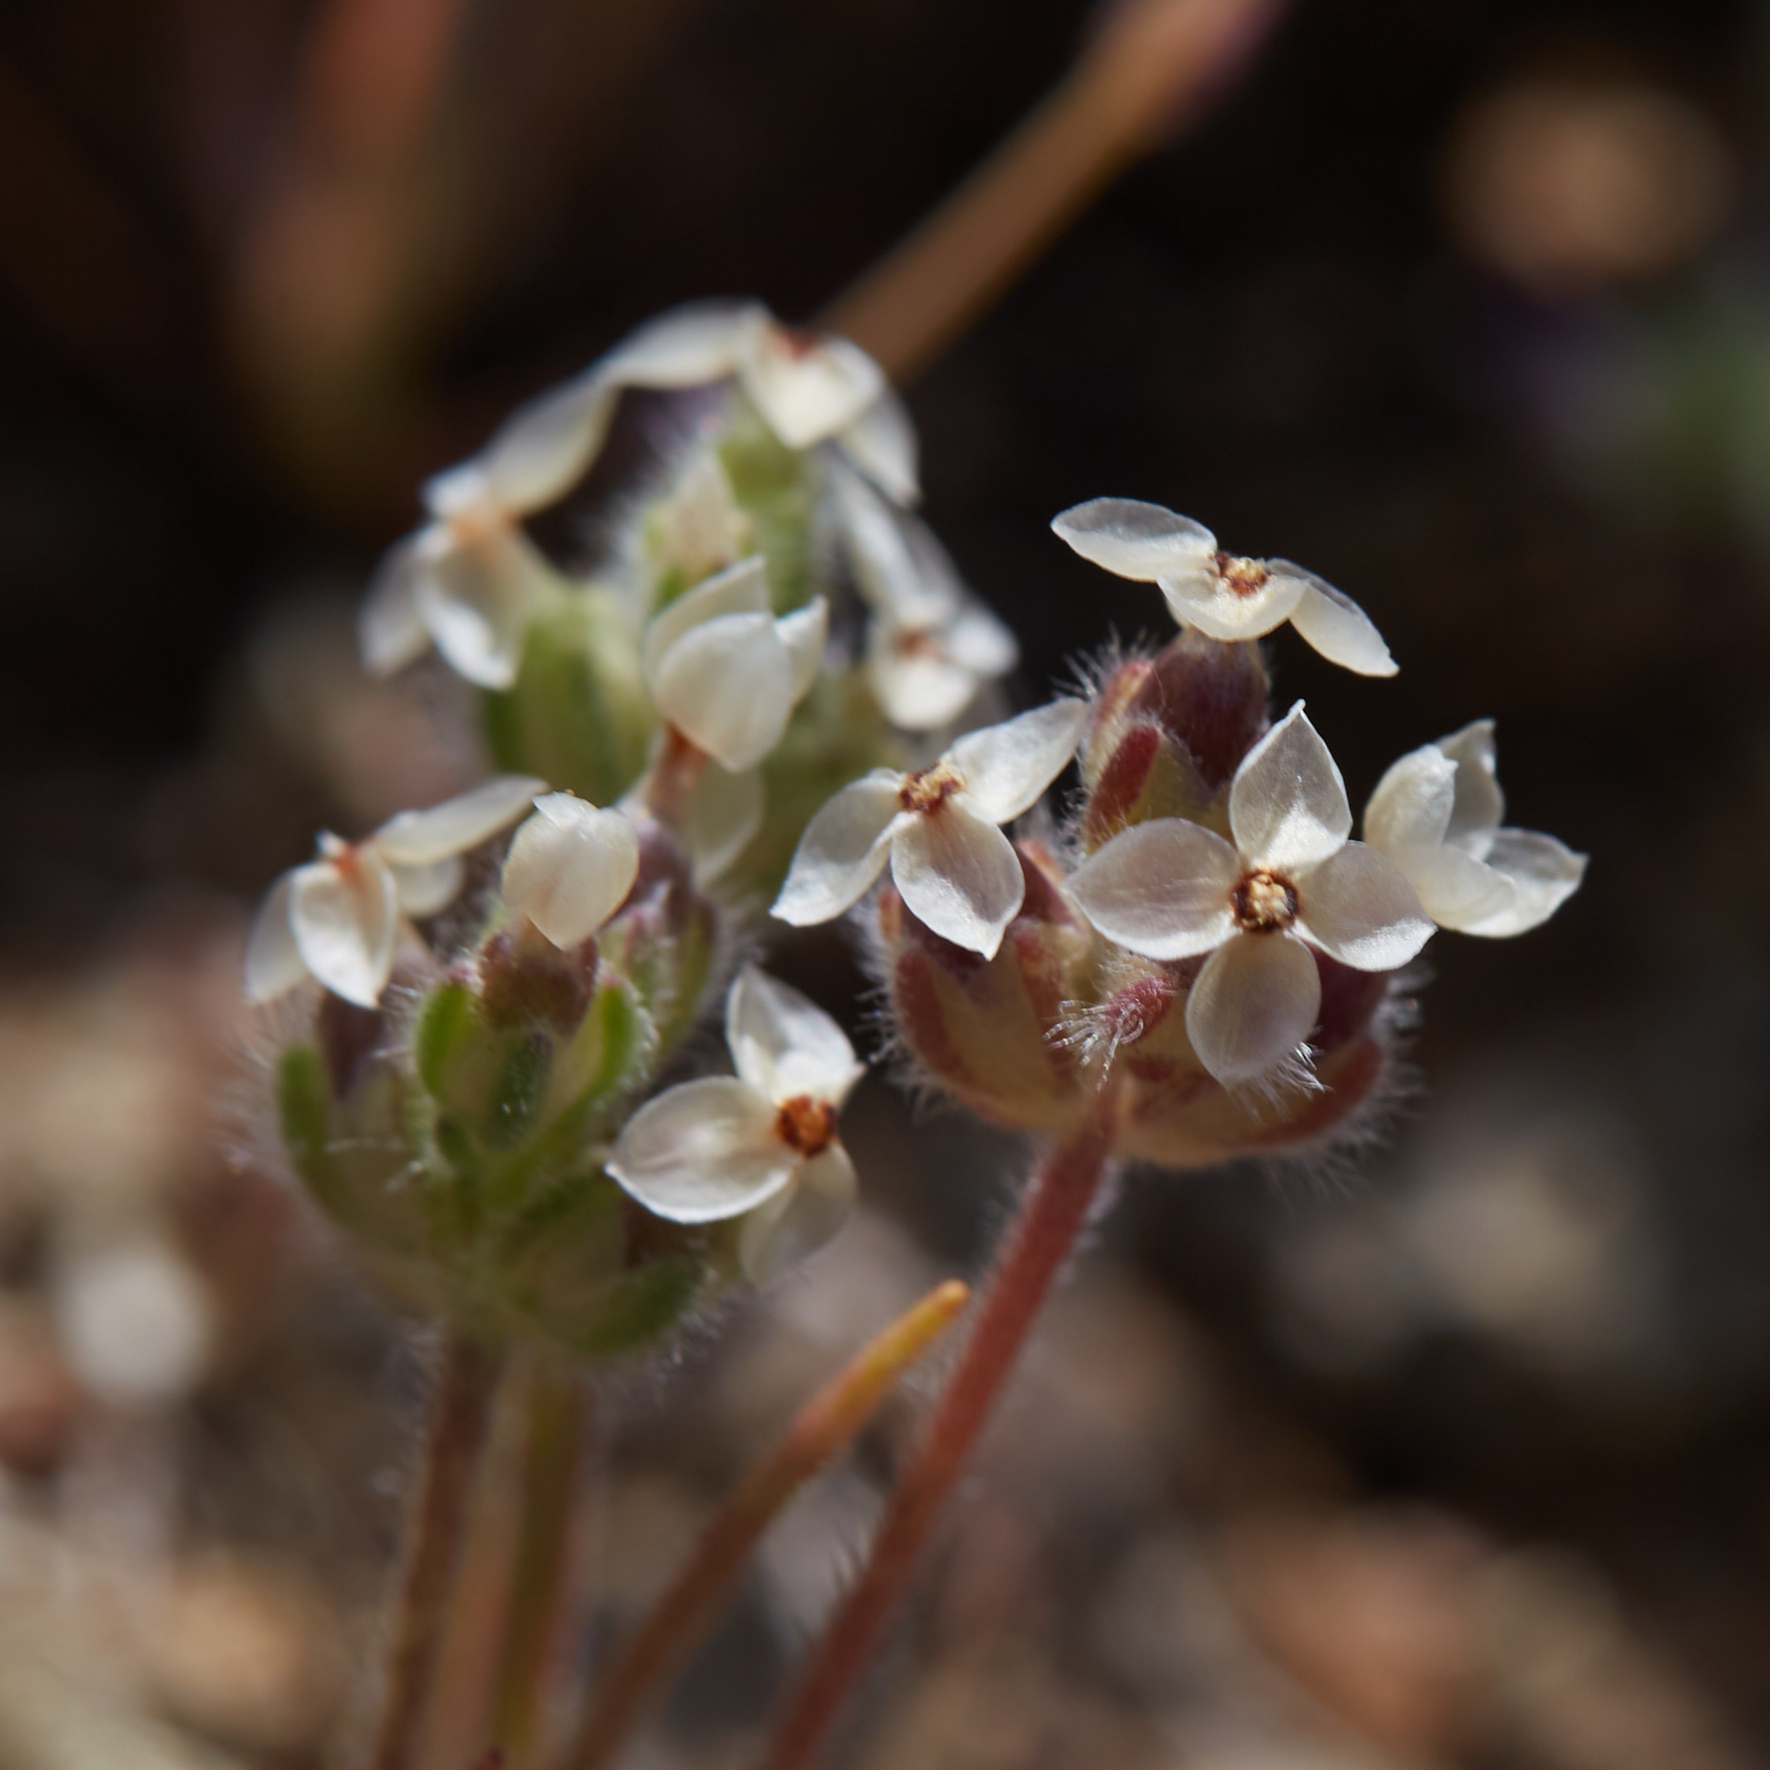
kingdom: Plantae
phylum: Tracheophyta
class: Magnoliopsida
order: Lamiales
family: Plantaginaceae
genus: Plantago
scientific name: Plantago erecta
